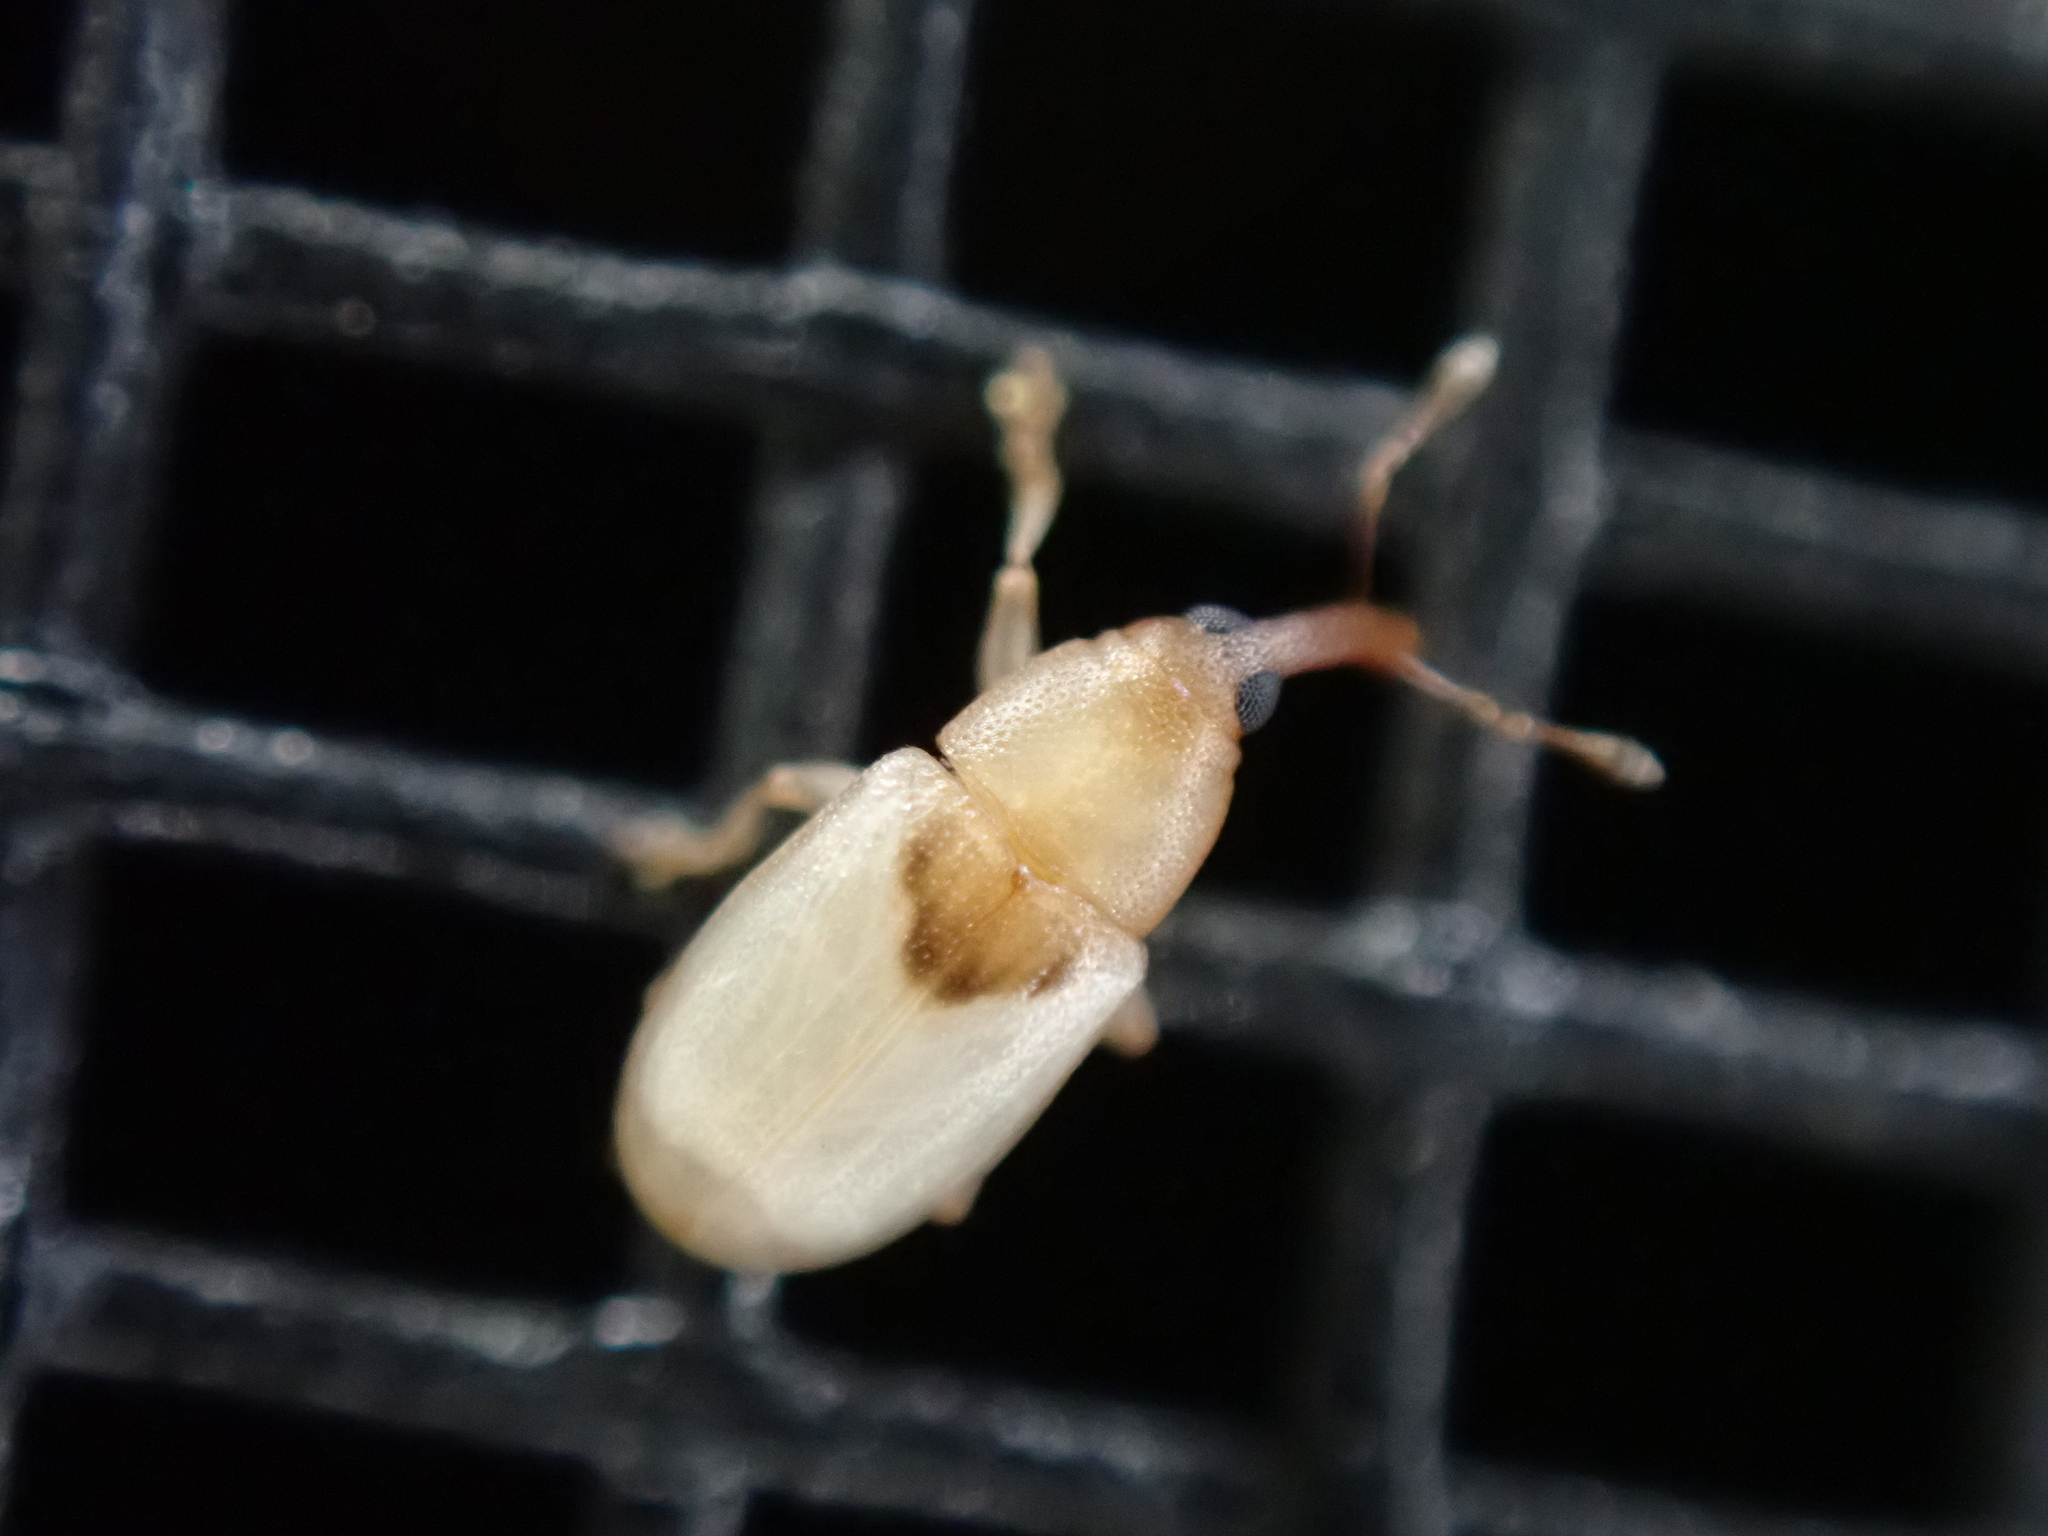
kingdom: Animalia
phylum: Arthropoda
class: Insecta
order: Coleoptera
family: Curculionidae
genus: Notolomus
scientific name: Notolomus basalis
